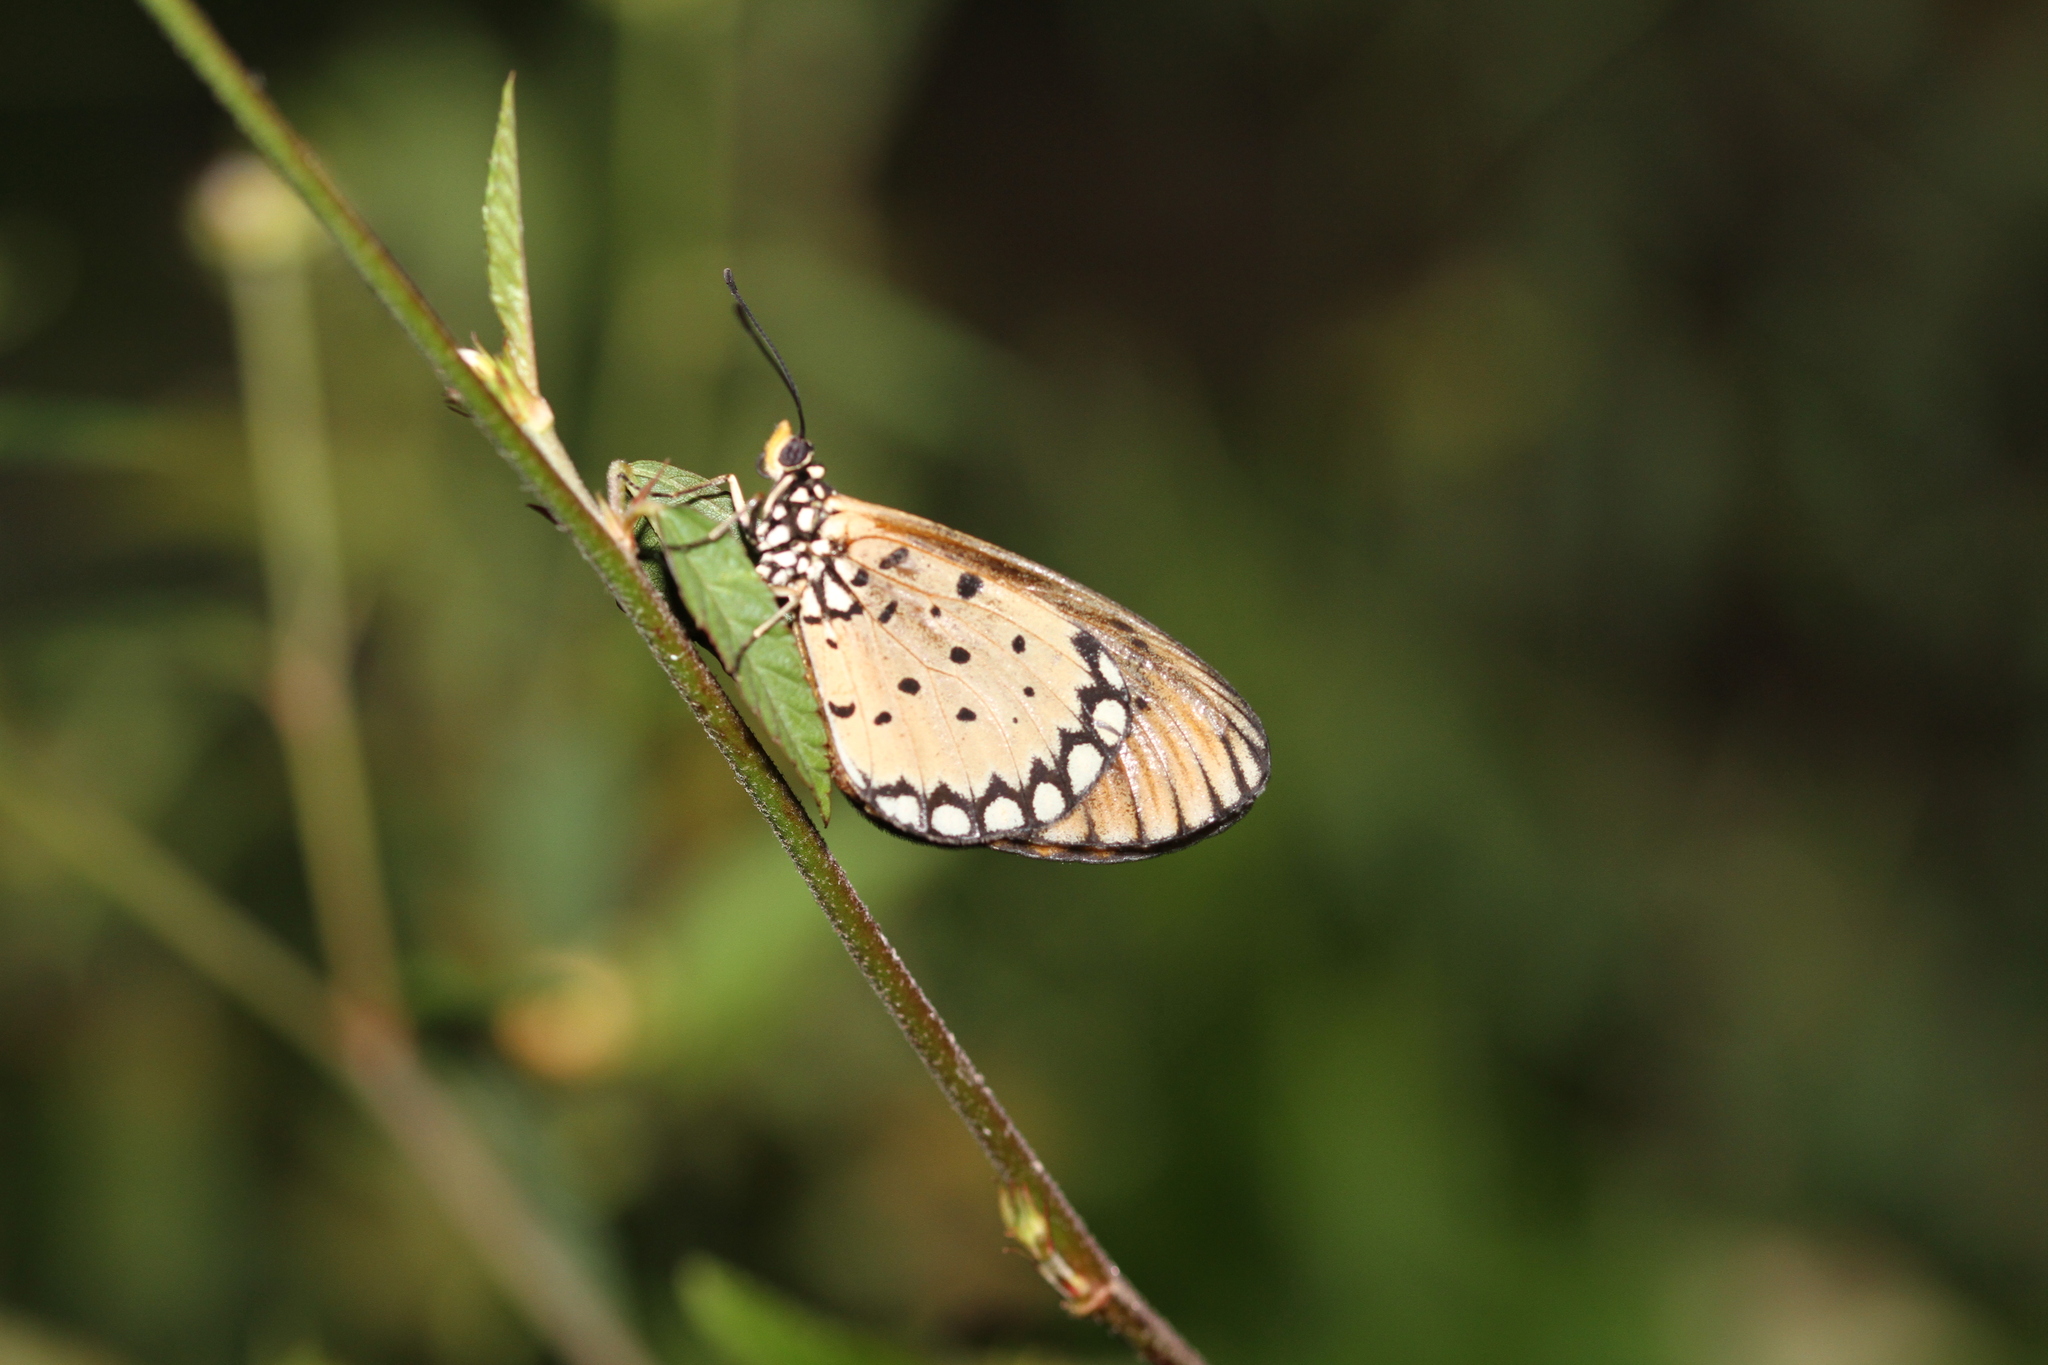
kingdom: Animalia
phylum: Arthropoda
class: Insecta
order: Lepidoptera
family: Nymphalidae
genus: Acraea
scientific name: Acraea terpsicore
